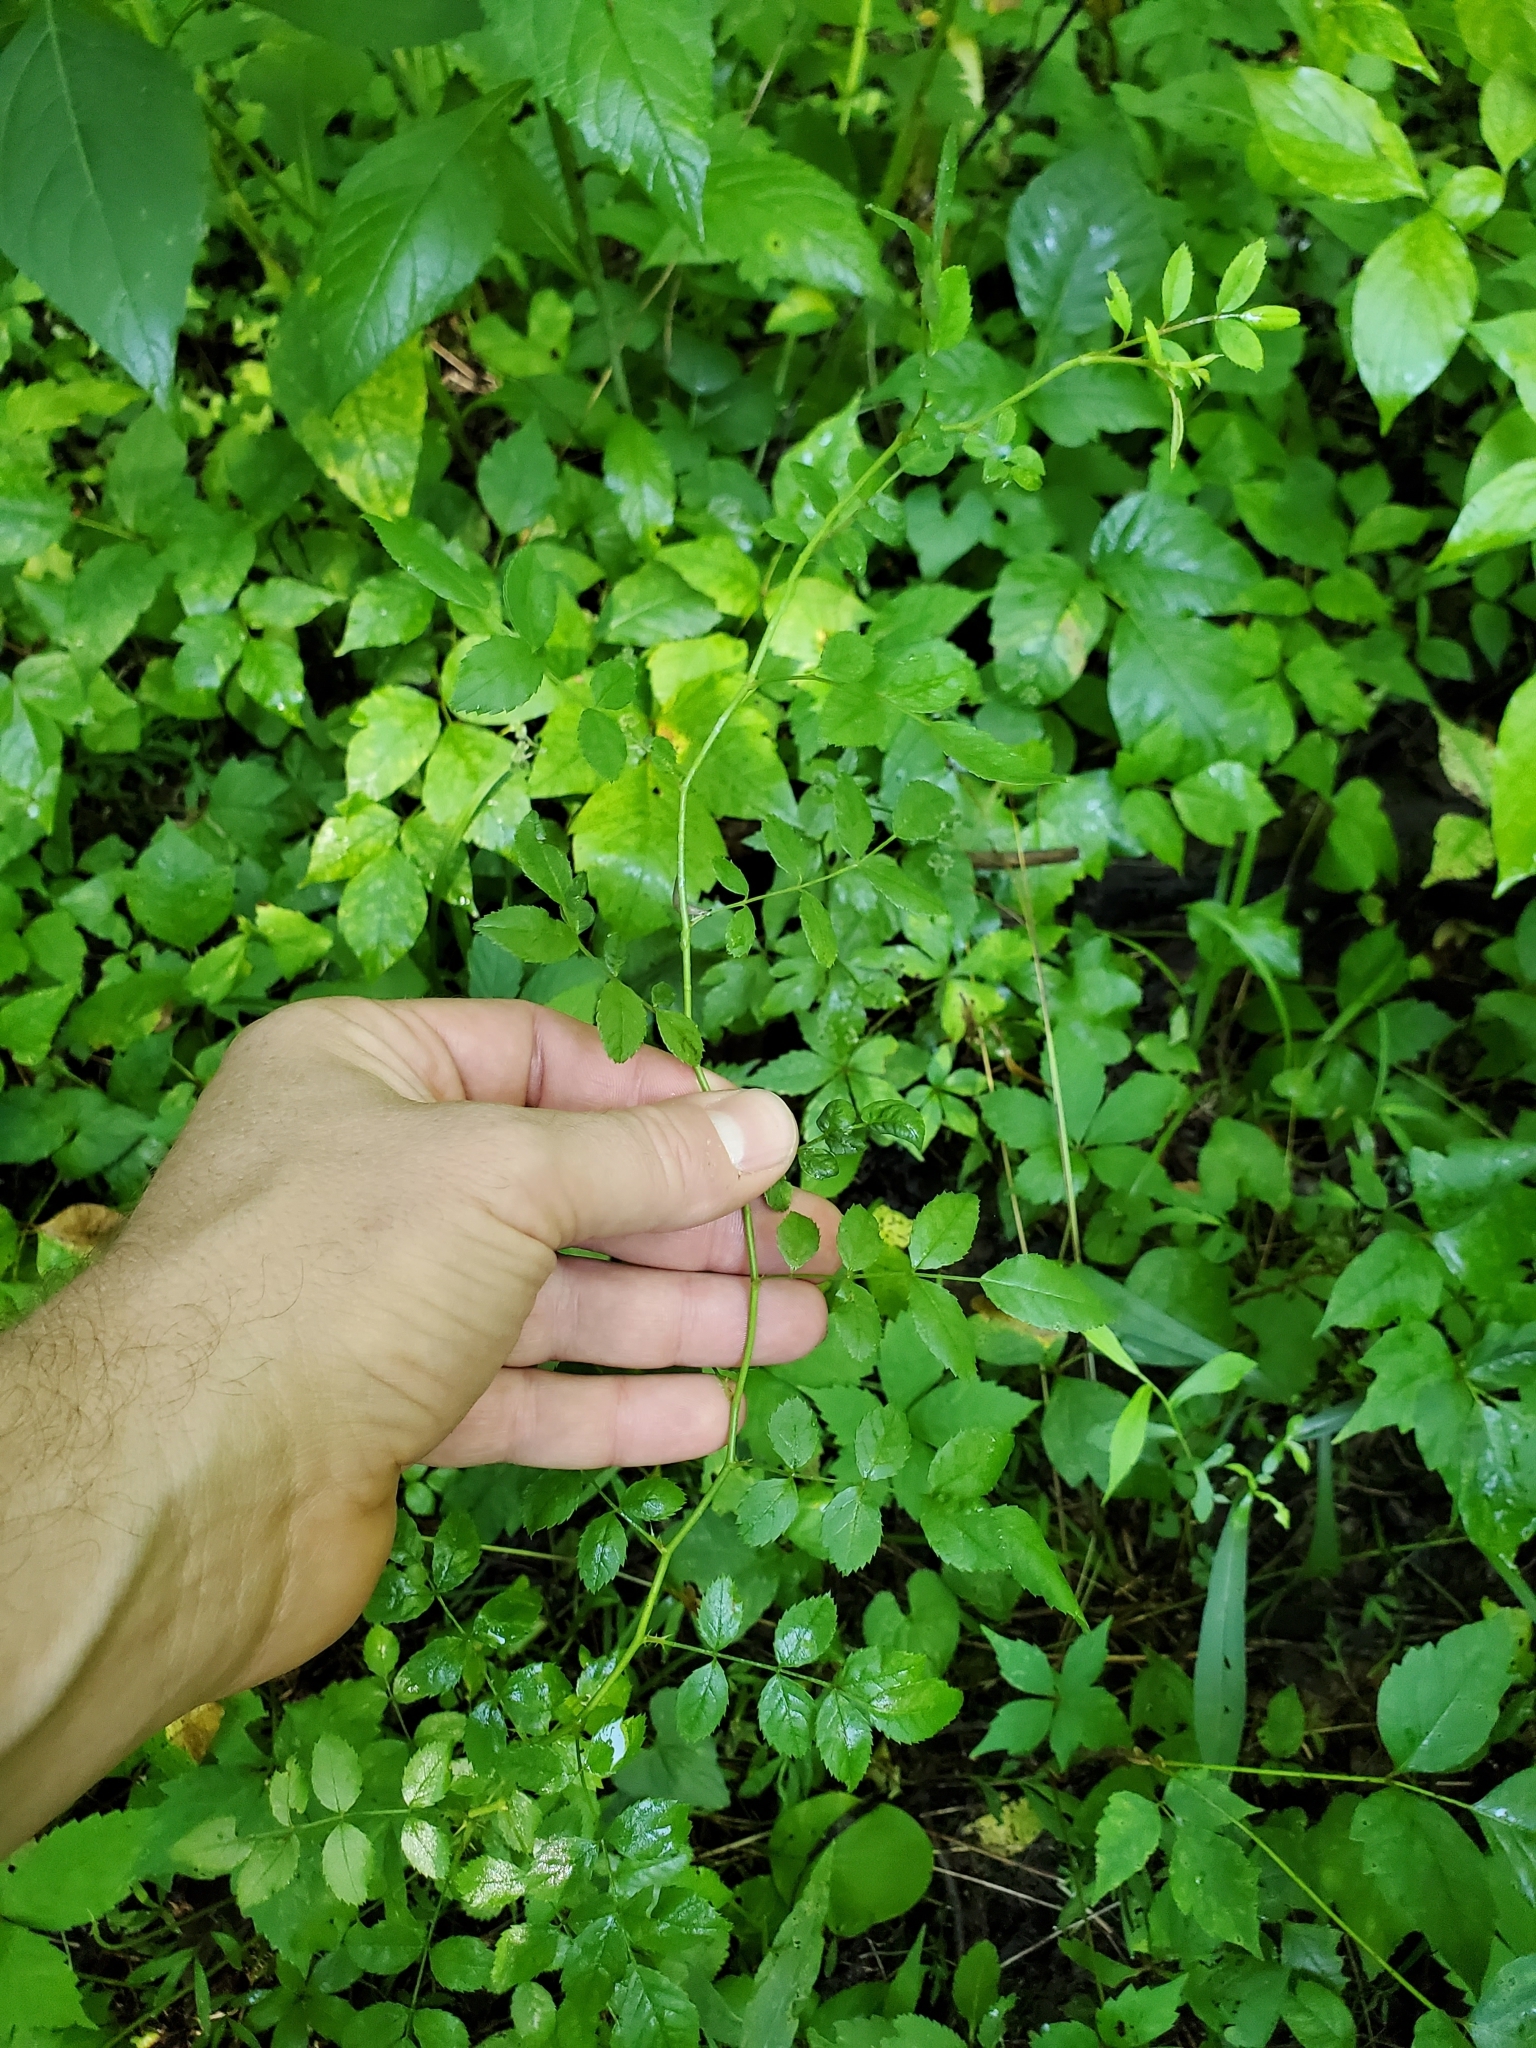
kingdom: Plantae
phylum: Tracheophyta
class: Magnoliopsida
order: Rosales
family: Rosaceae
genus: Rosa
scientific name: Rosa multiflora
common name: Multiflora rose
